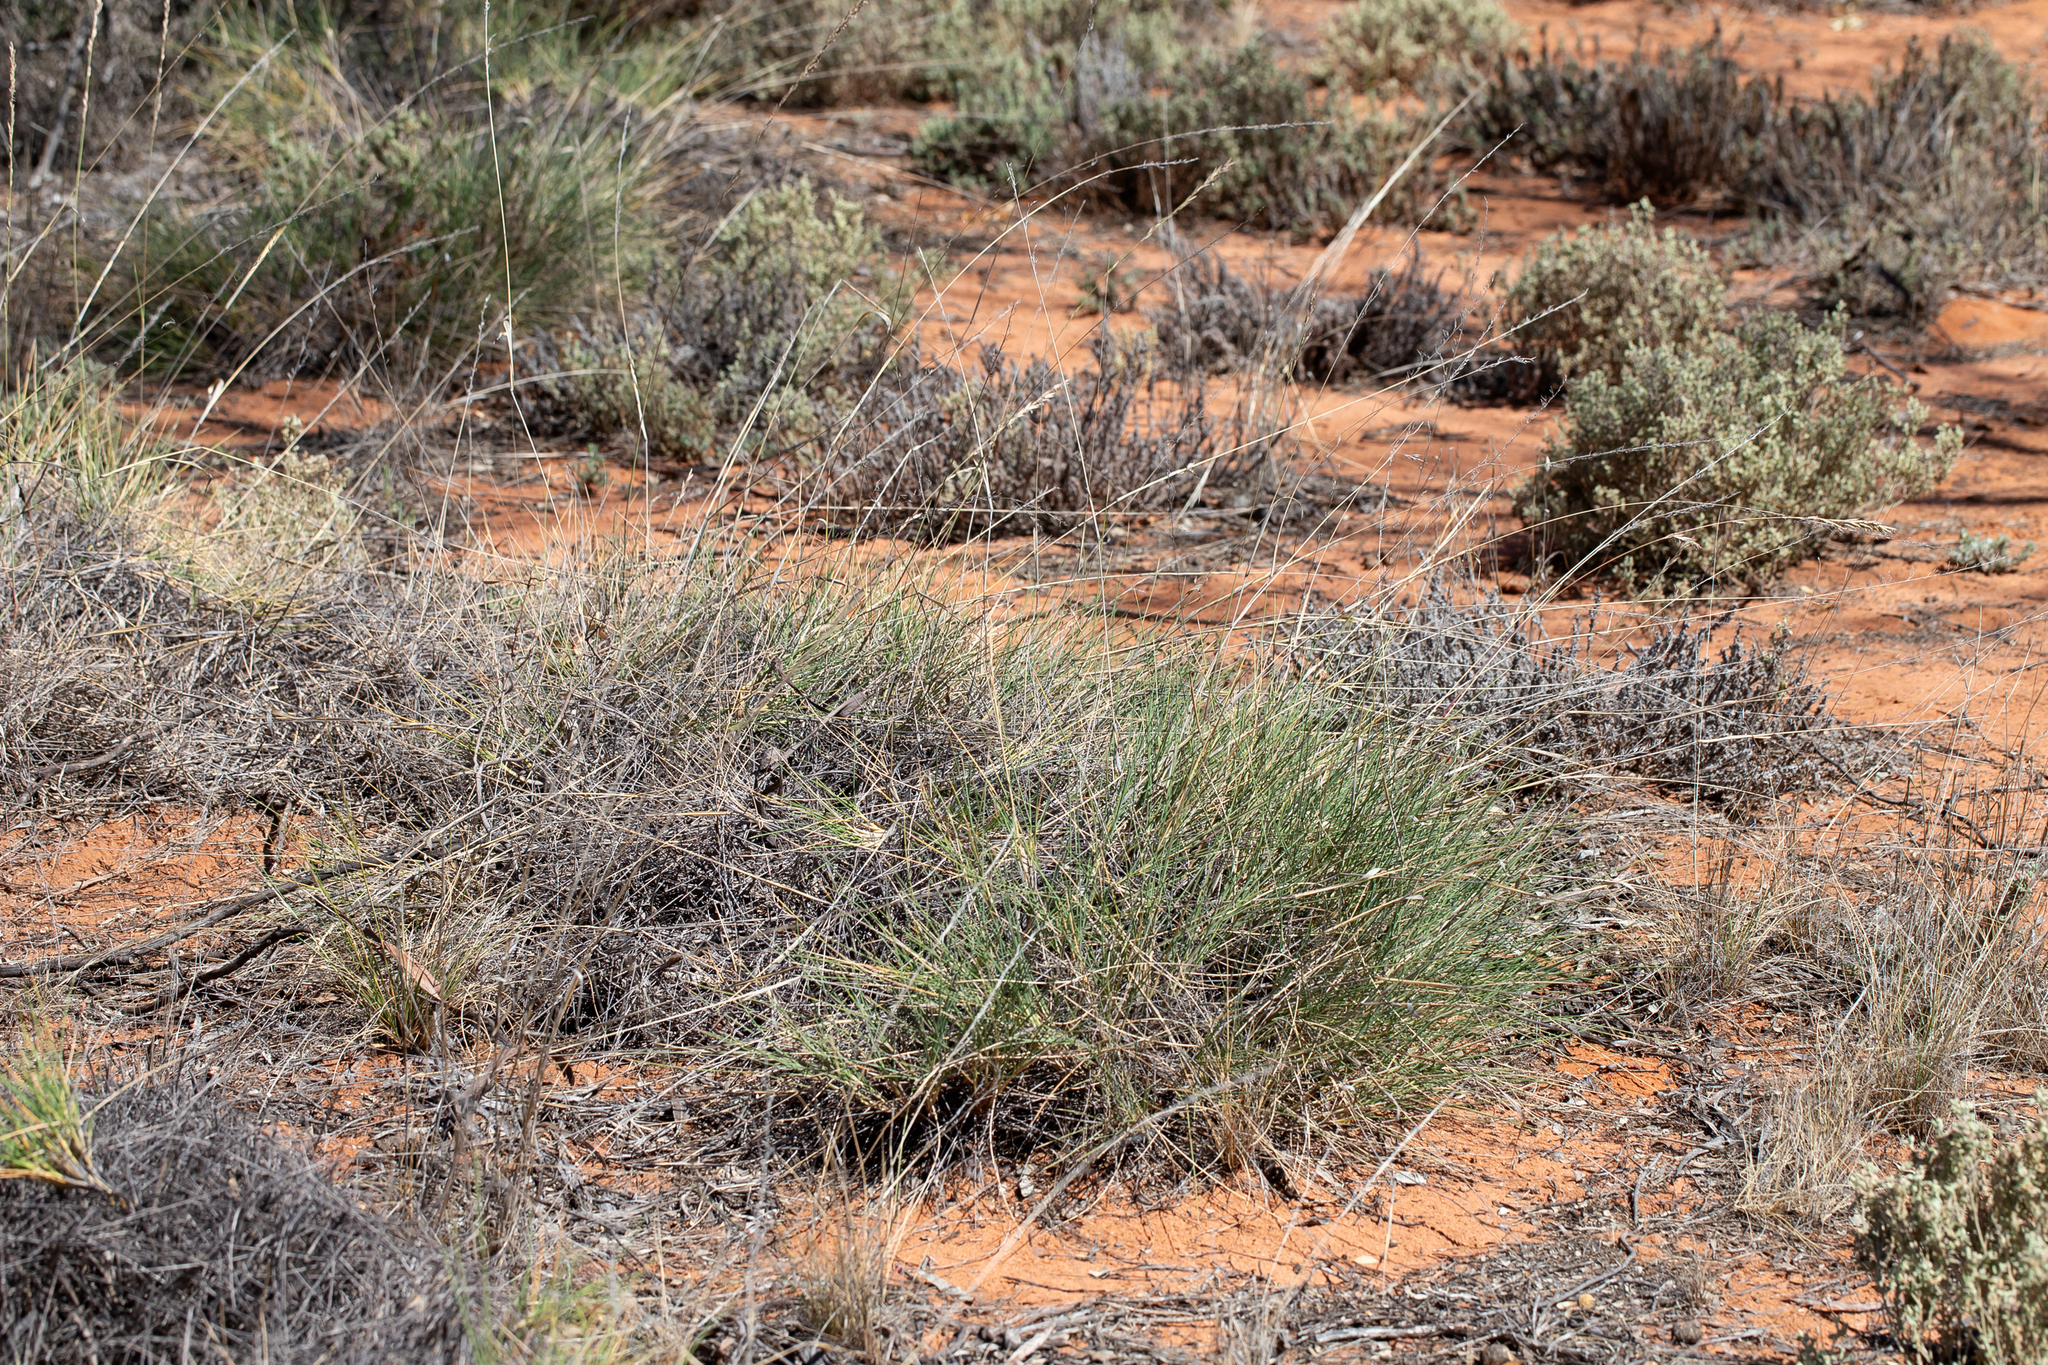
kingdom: Plantae
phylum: Tracheophyta
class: Liliopsida
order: Poales
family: Poaceae
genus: Triodia
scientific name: Triodia scariosa
